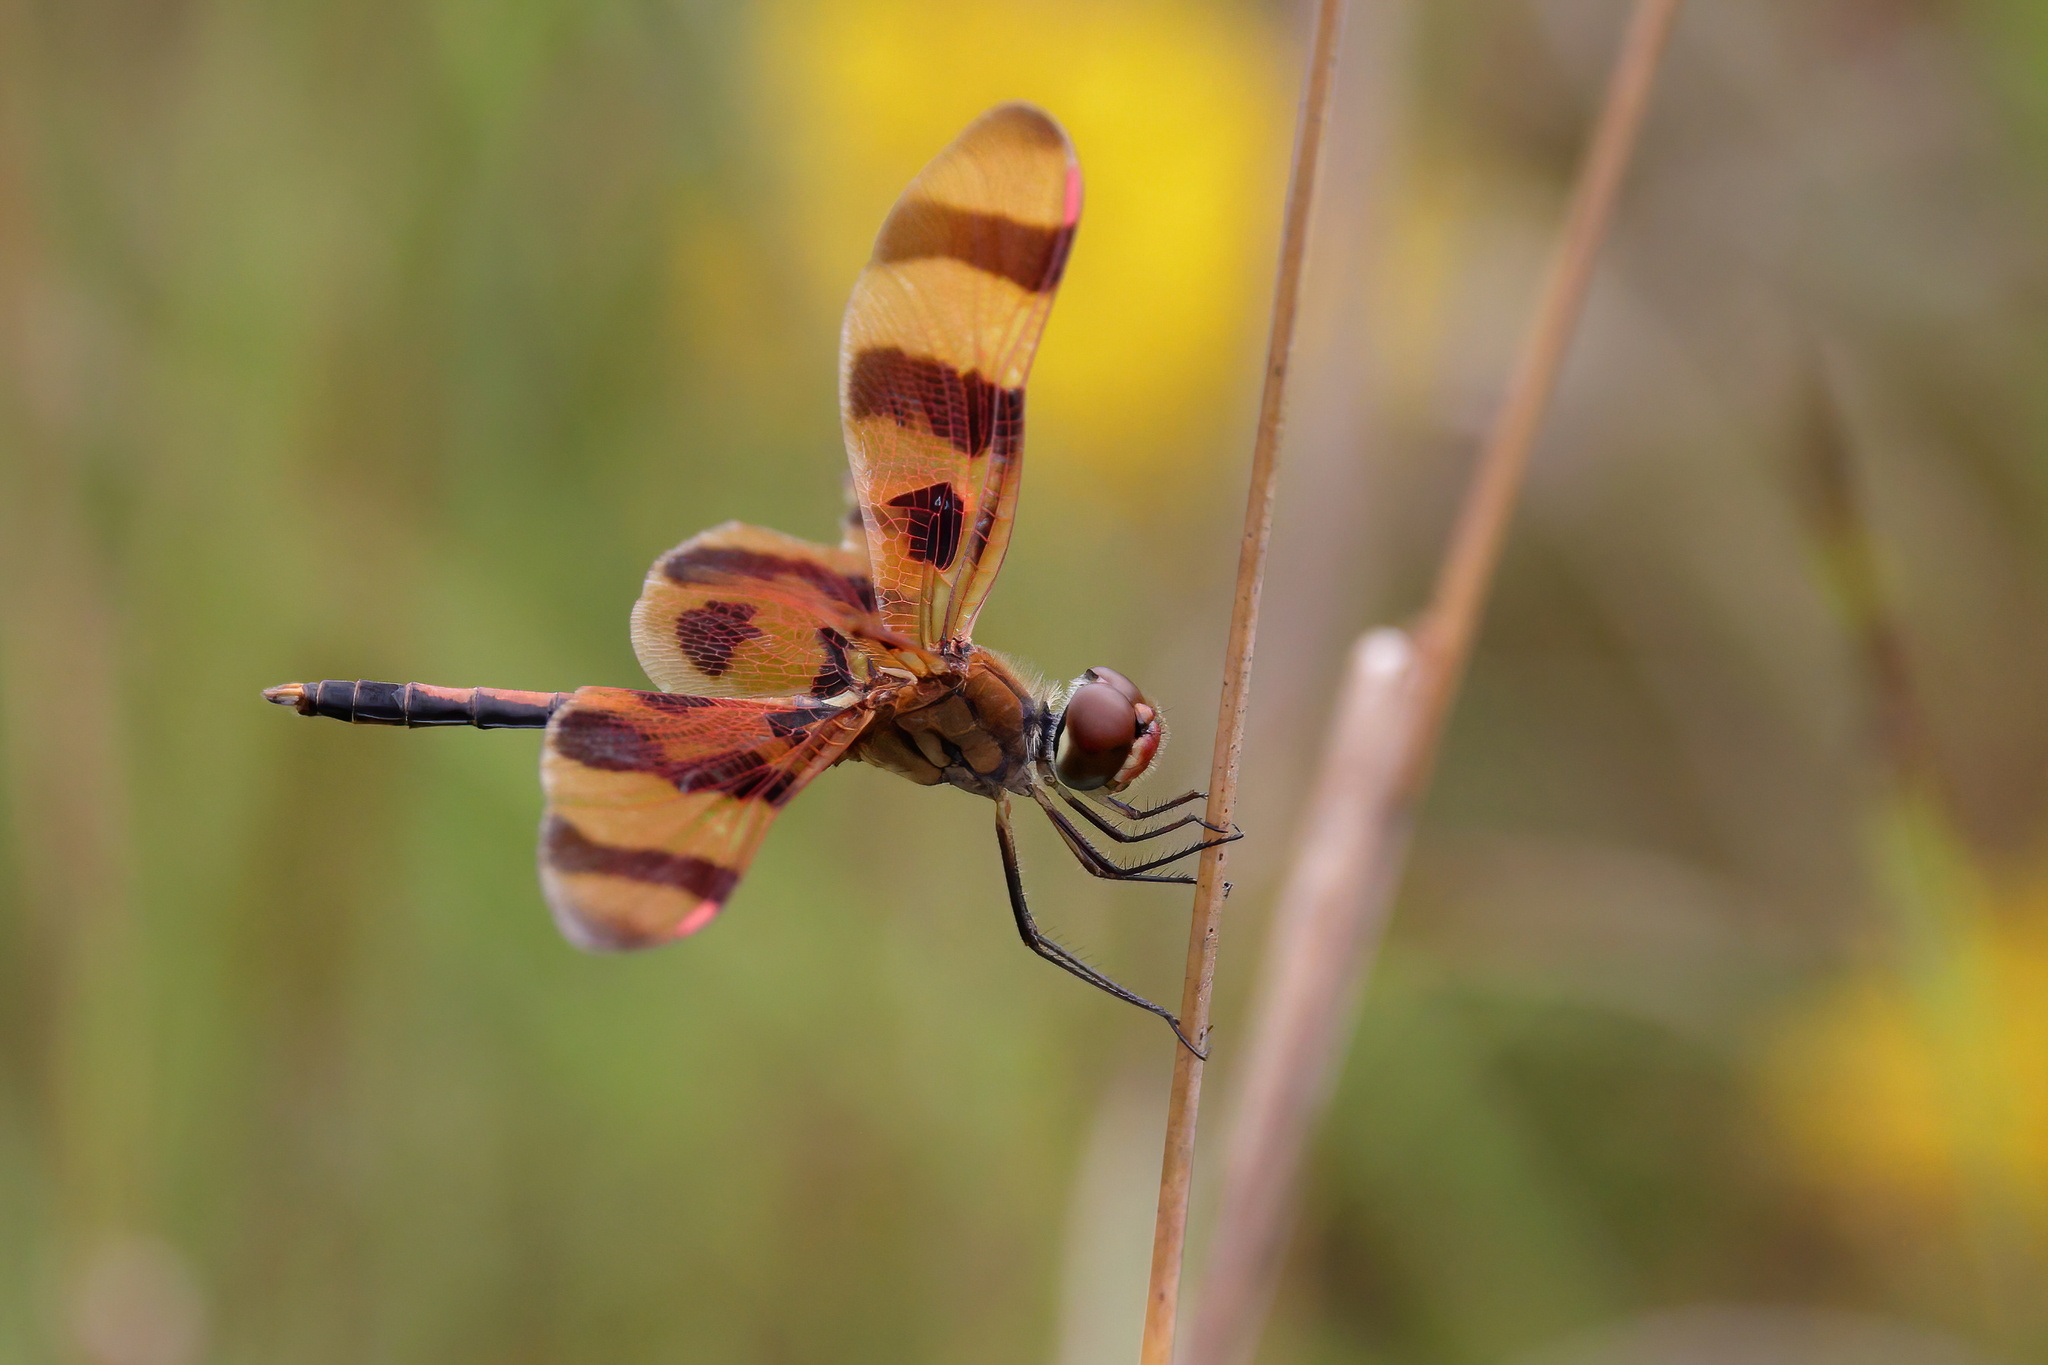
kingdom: Animalia
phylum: Arthropoda
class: Insecta
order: Odonata
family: Libellulidae
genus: Celithemis
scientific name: Celithemis eponina
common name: Halloween pennant
